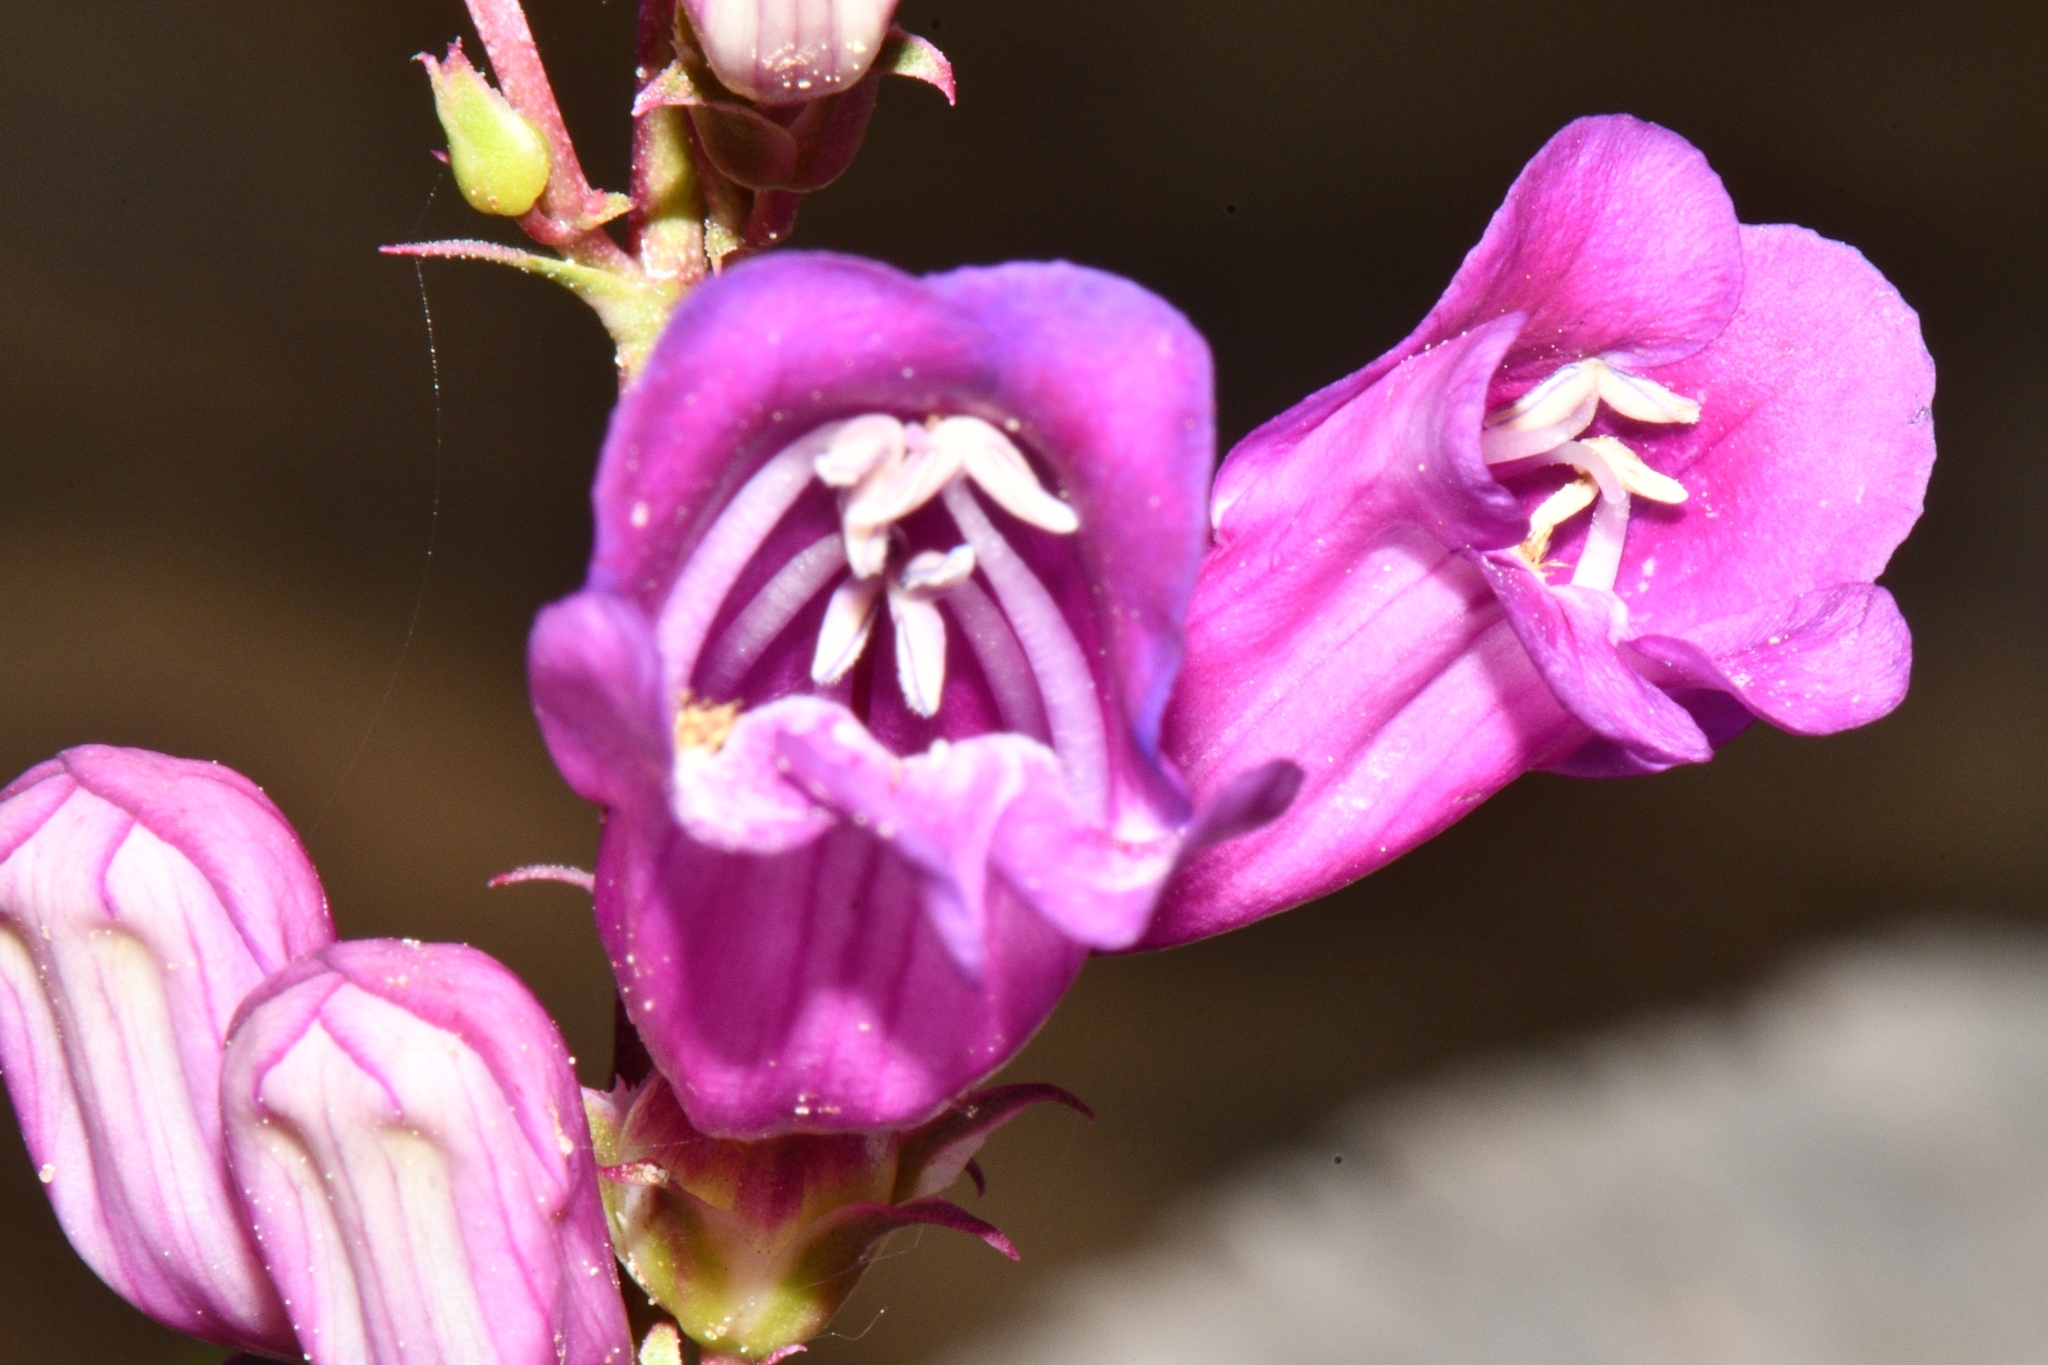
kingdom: Plantae
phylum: Tracheophyta
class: Magnoliopsida
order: Lamiales
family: Plantaginaceae
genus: Penstemon
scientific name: Penstemon jonesii
